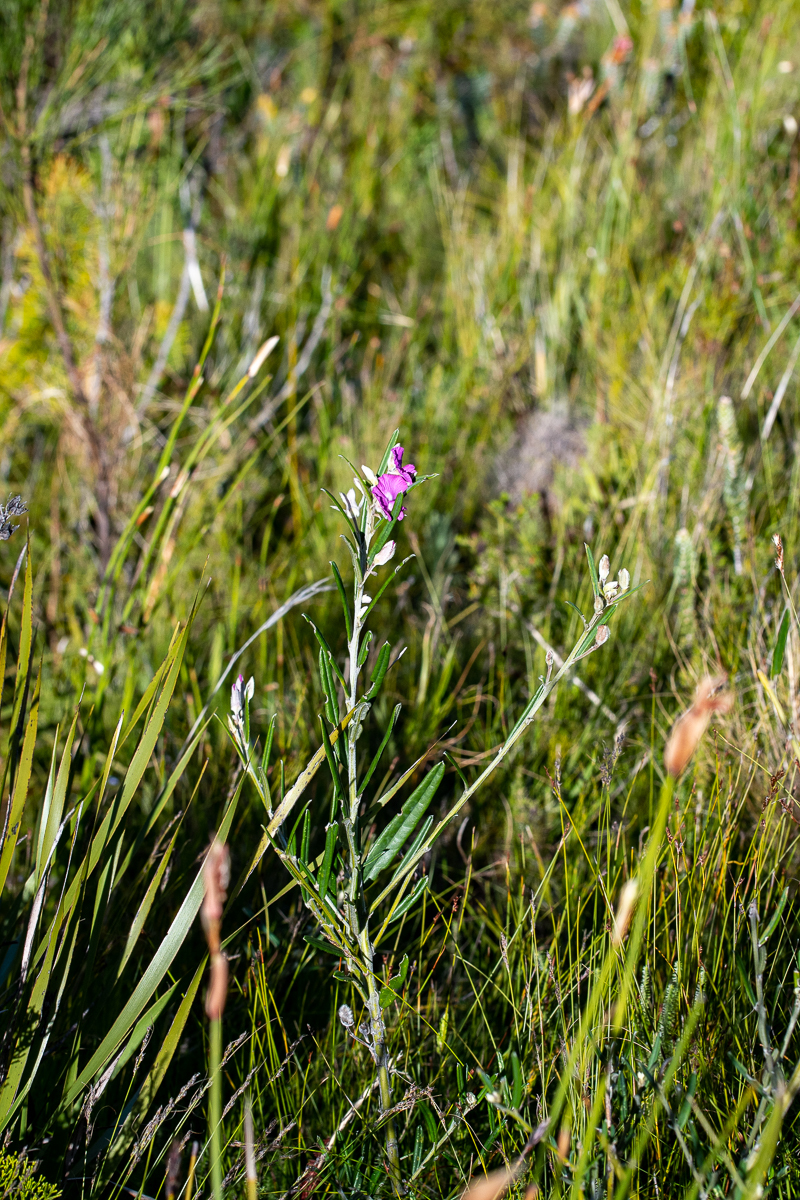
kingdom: Plantae
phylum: Tracheophyta
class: Magnoliopsida
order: Fabales
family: Fabaceae
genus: Podalyria
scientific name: Podalyria oleifolia
